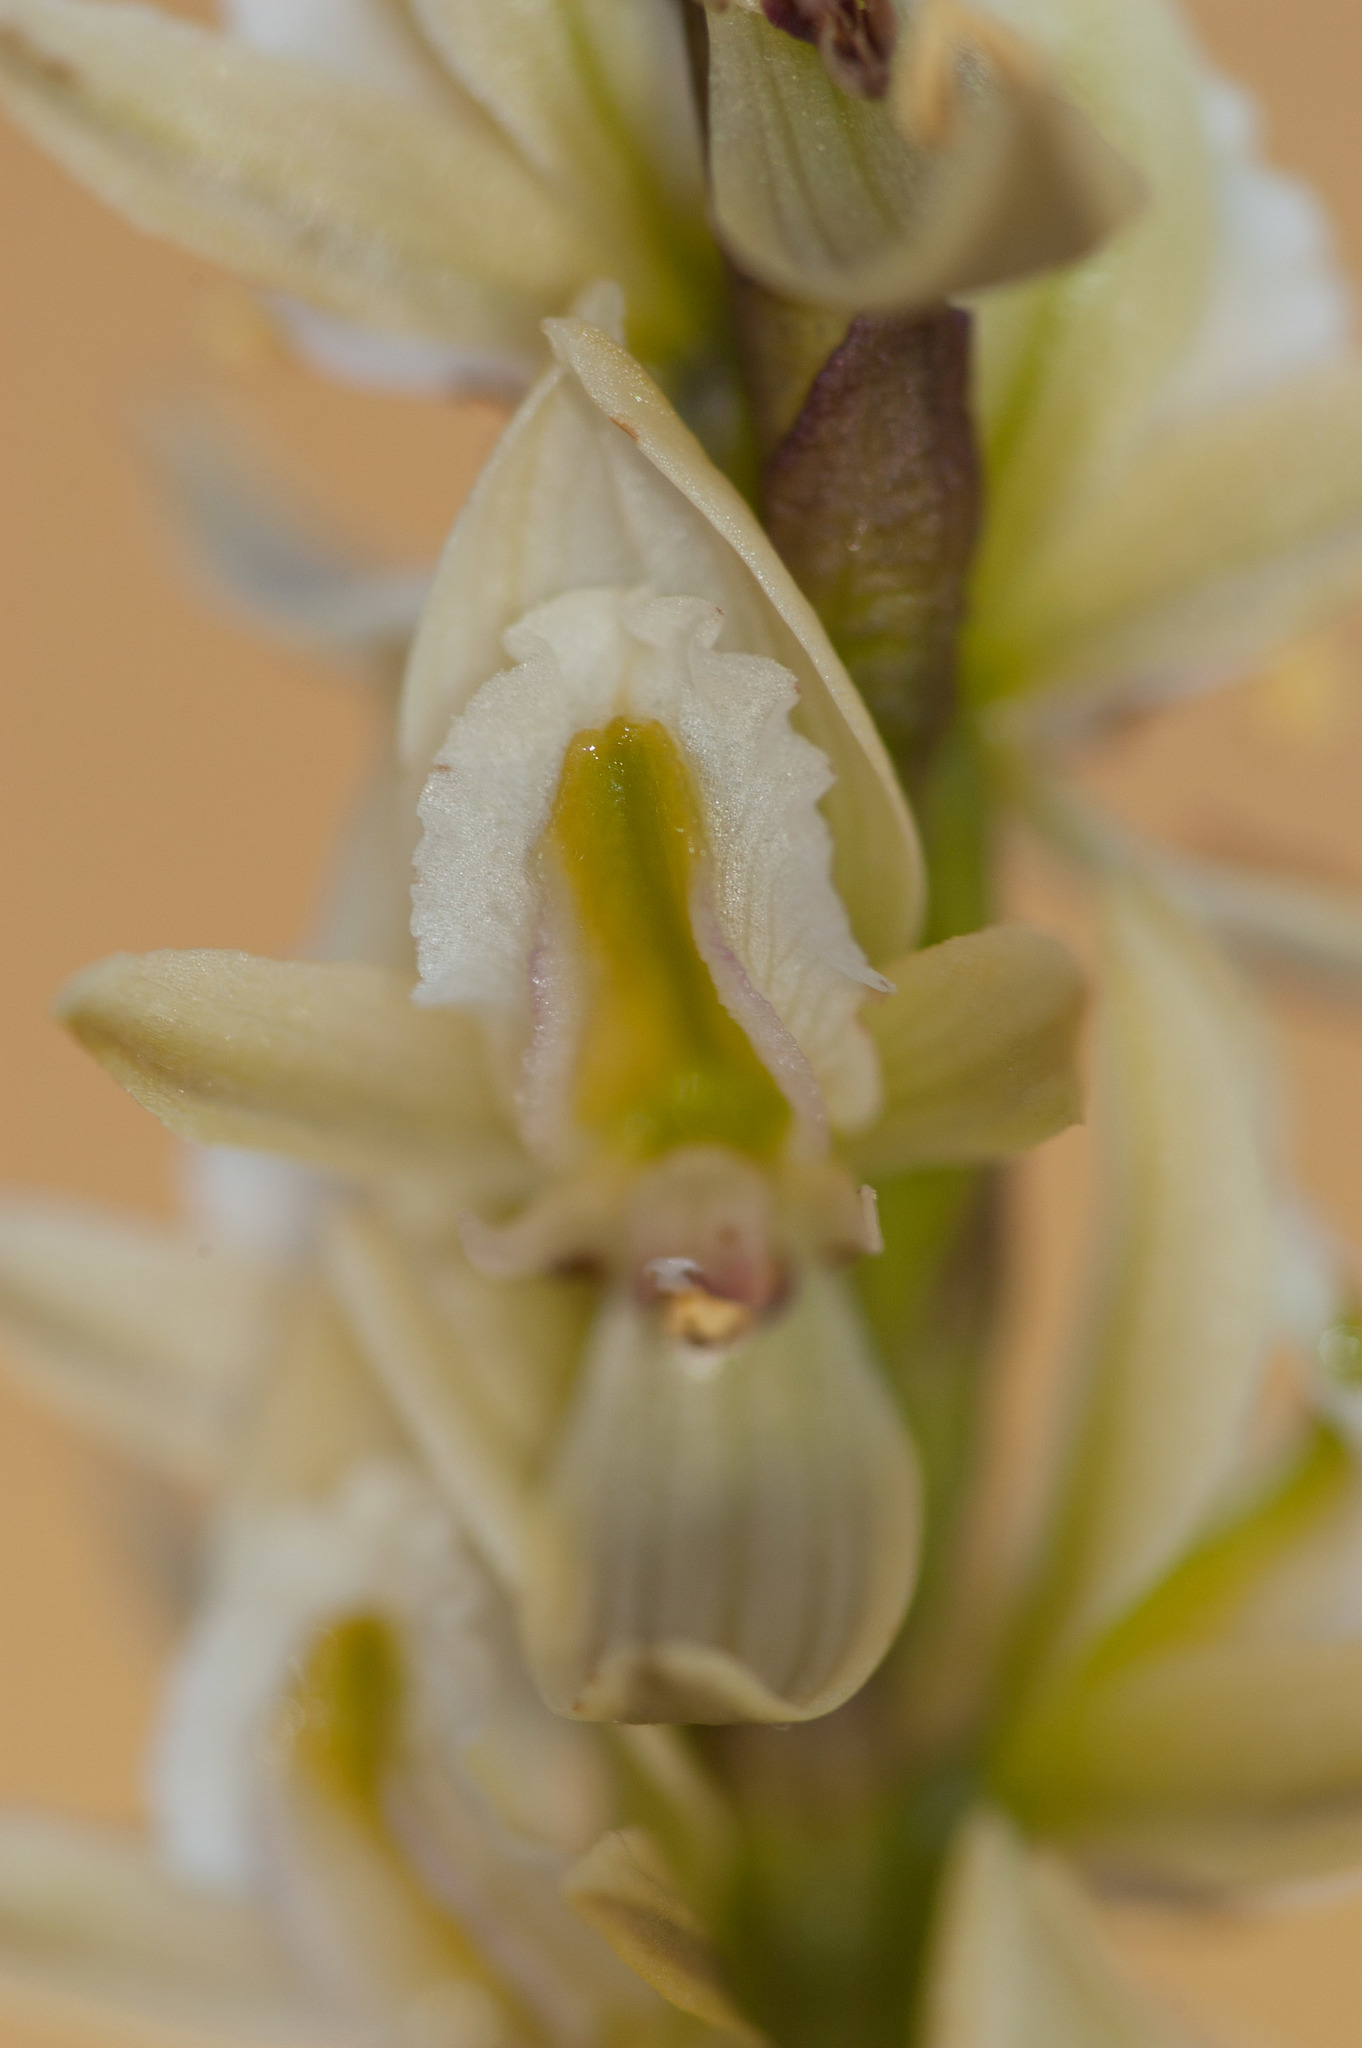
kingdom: Plantae
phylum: Tracheophyta
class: Liliopsida
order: Asparagales
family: Orchidaceae
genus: Prasophyllum
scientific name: Prasophyllum elatum
